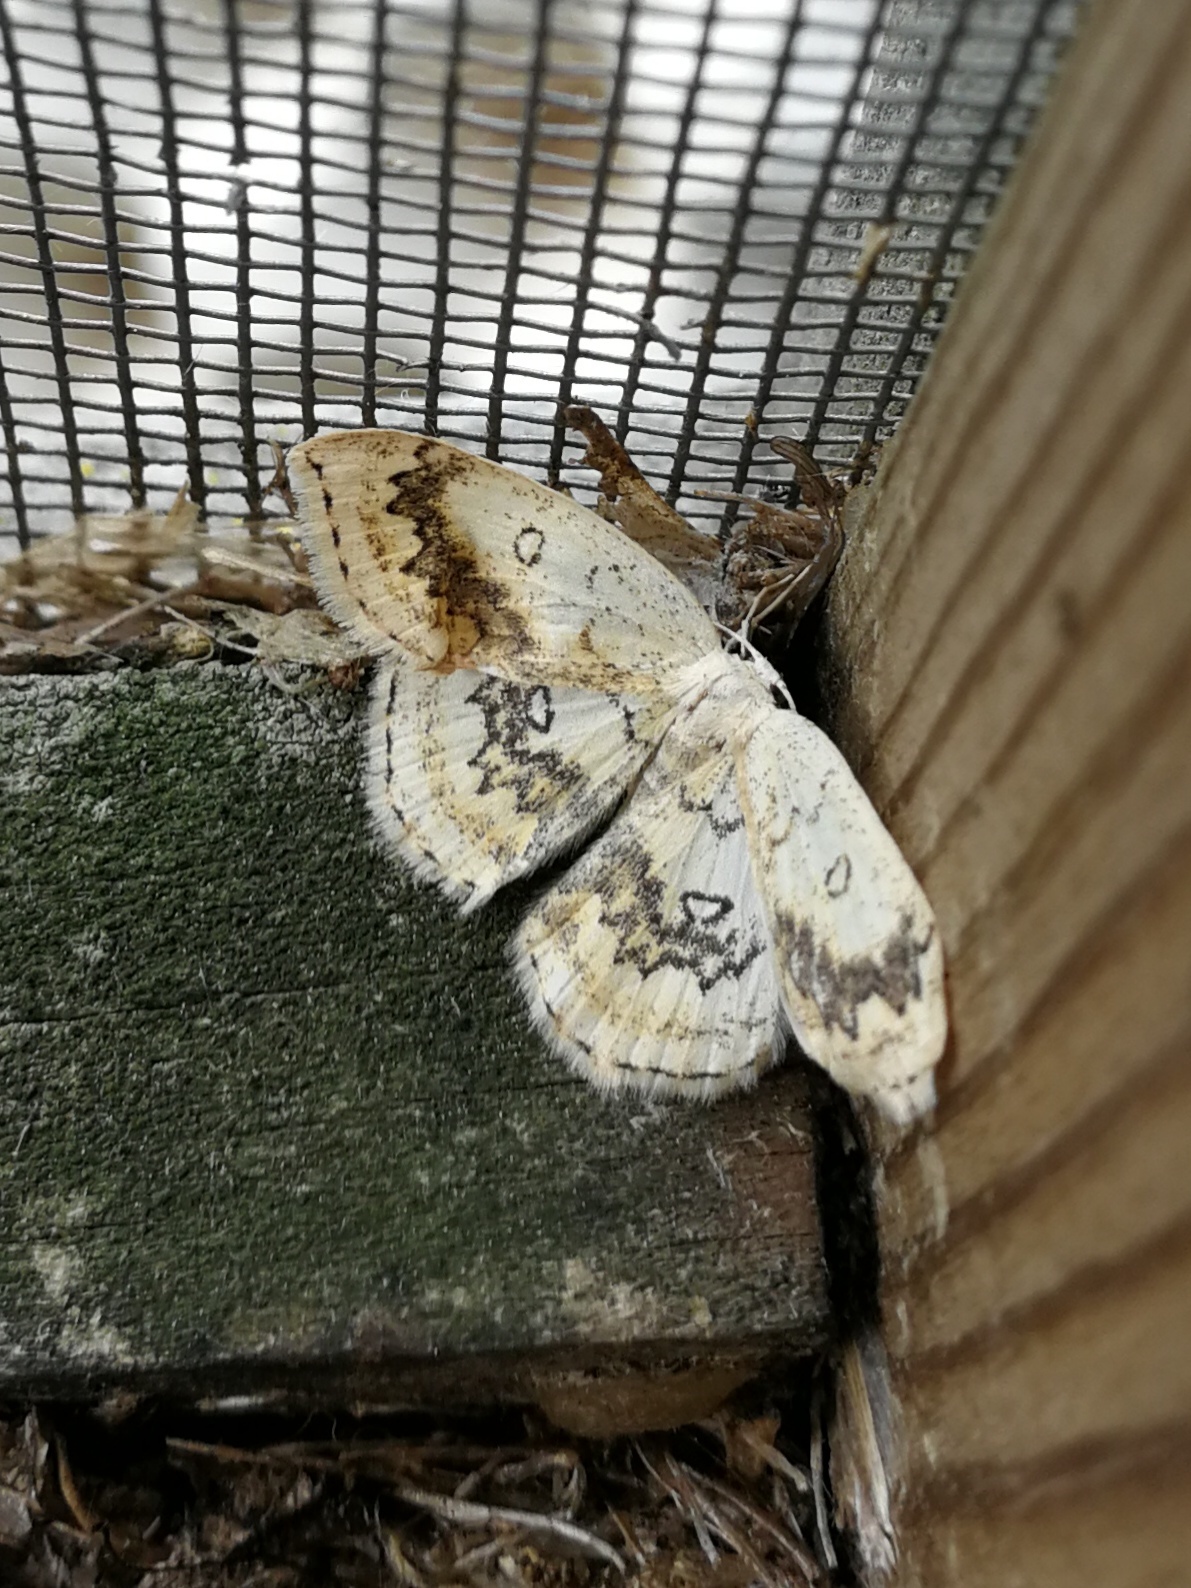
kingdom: Animalia
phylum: Arthropoda
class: Insecta
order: Lepidoptera
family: Geometridae
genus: Cyclophora
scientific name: Cyclophora annularia
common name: Mocha
